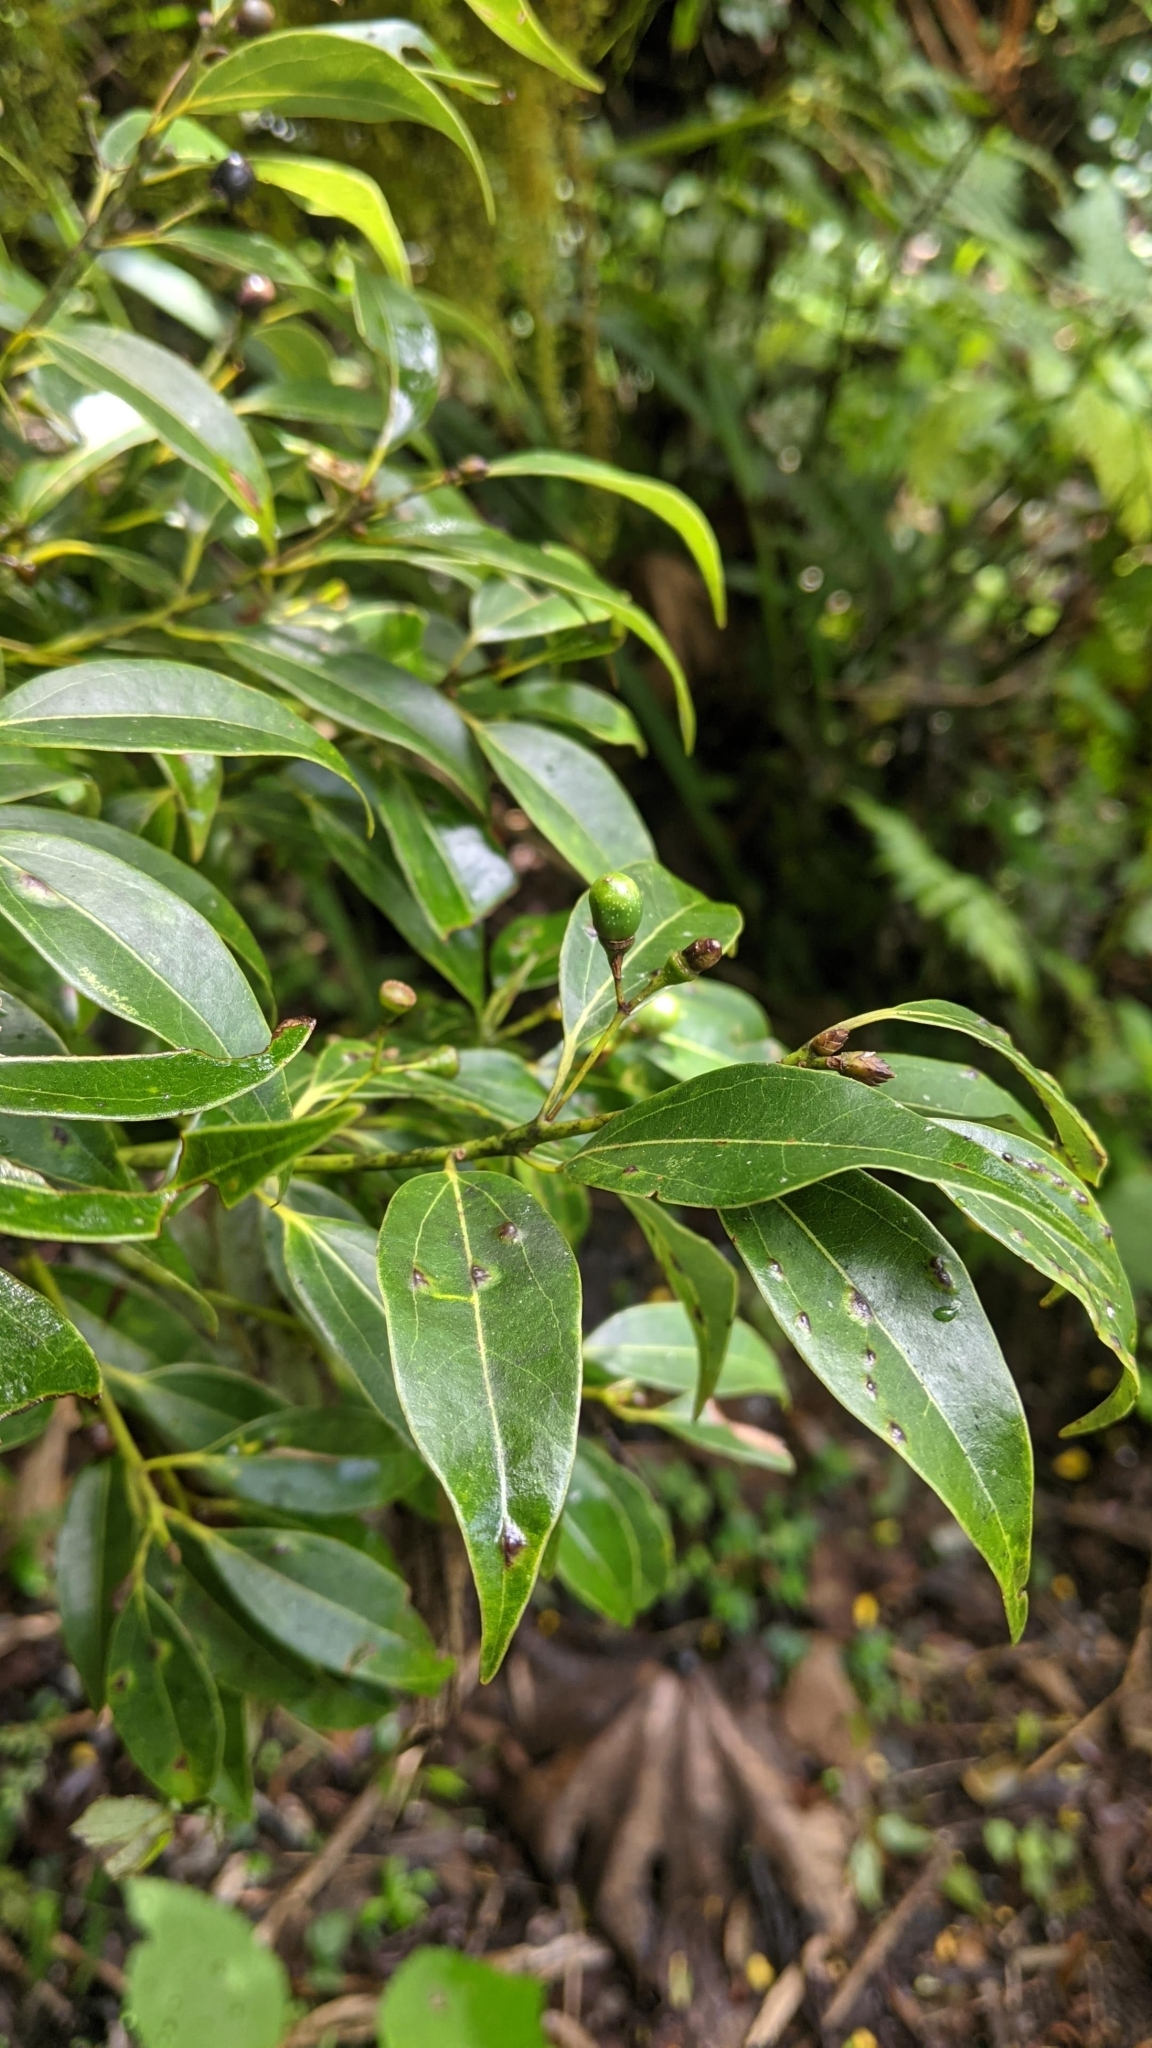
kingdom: Plantae
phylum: Tracheophyta
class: Magnoliopsida
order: Laurales
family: Lauraceae
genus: Cinnamomum
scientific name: Cinnamomum chekiangense
